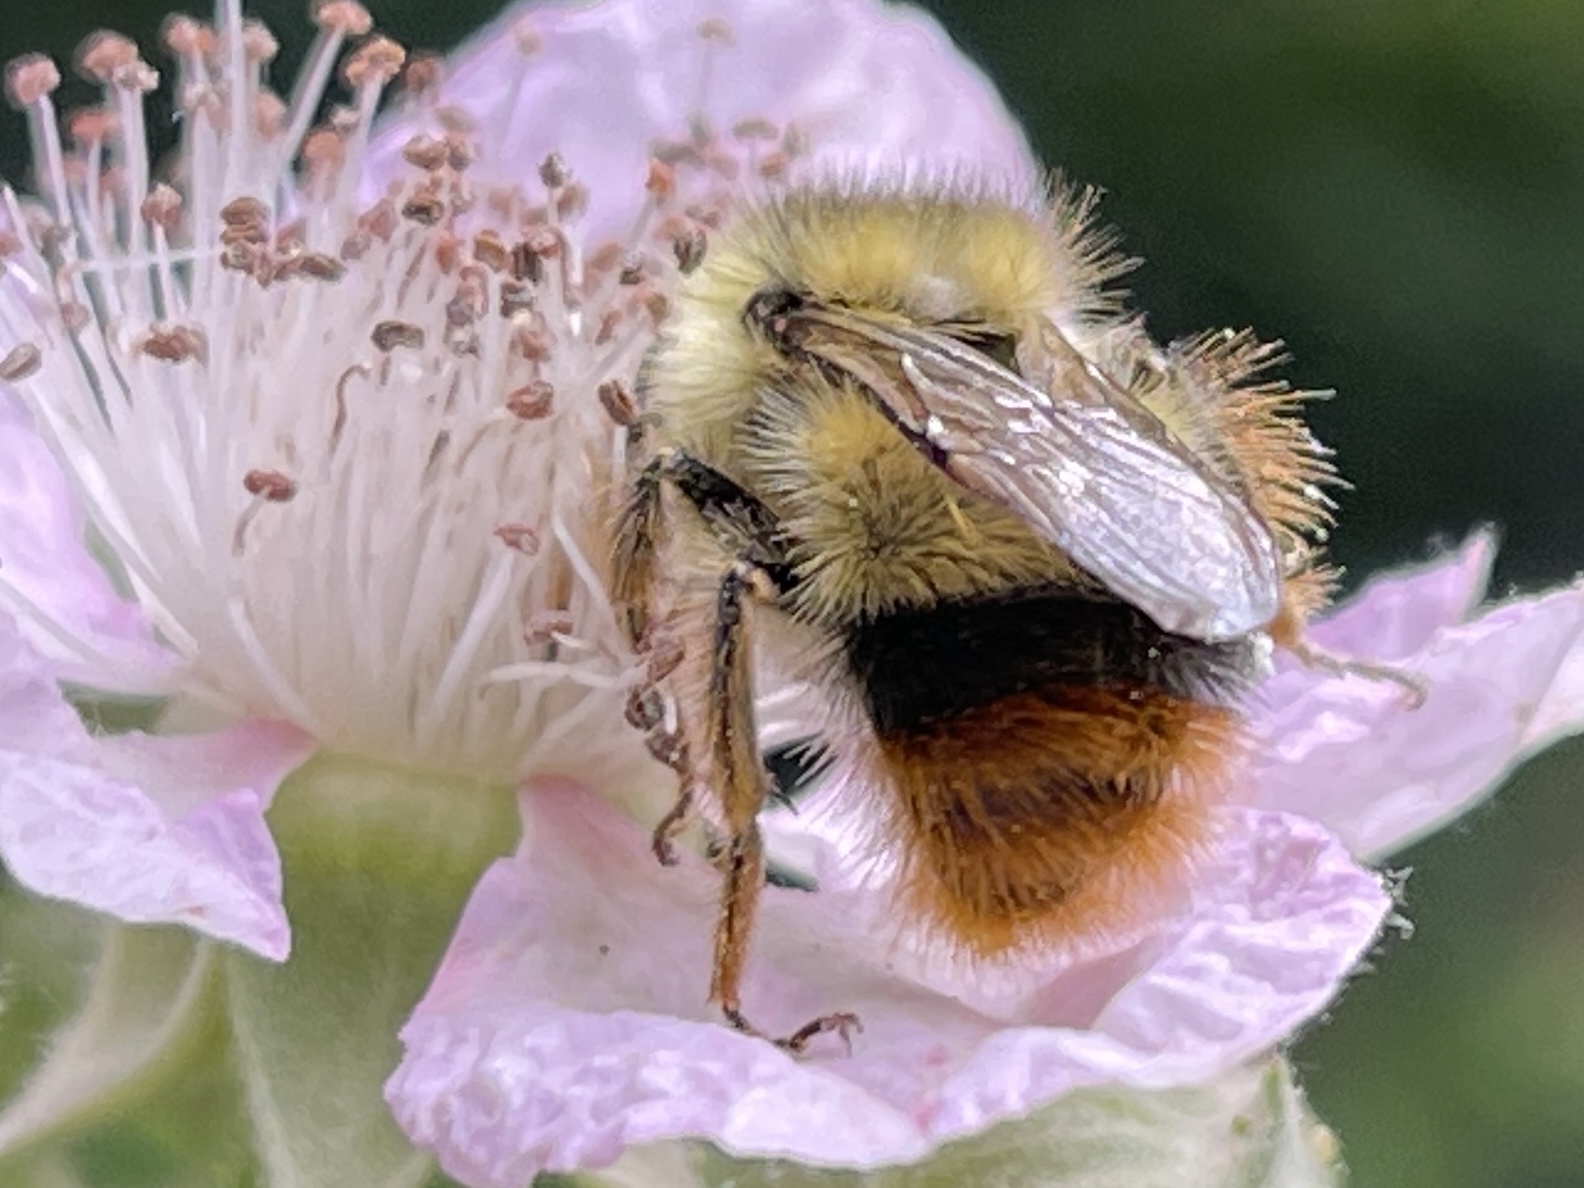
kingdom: Animalia
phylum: Arthropoda
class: Insecta
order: Hymenoptera
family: Apidae
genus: Bombus
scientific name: Bombus mixtus
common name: Fuzzy-horned bumble bee
